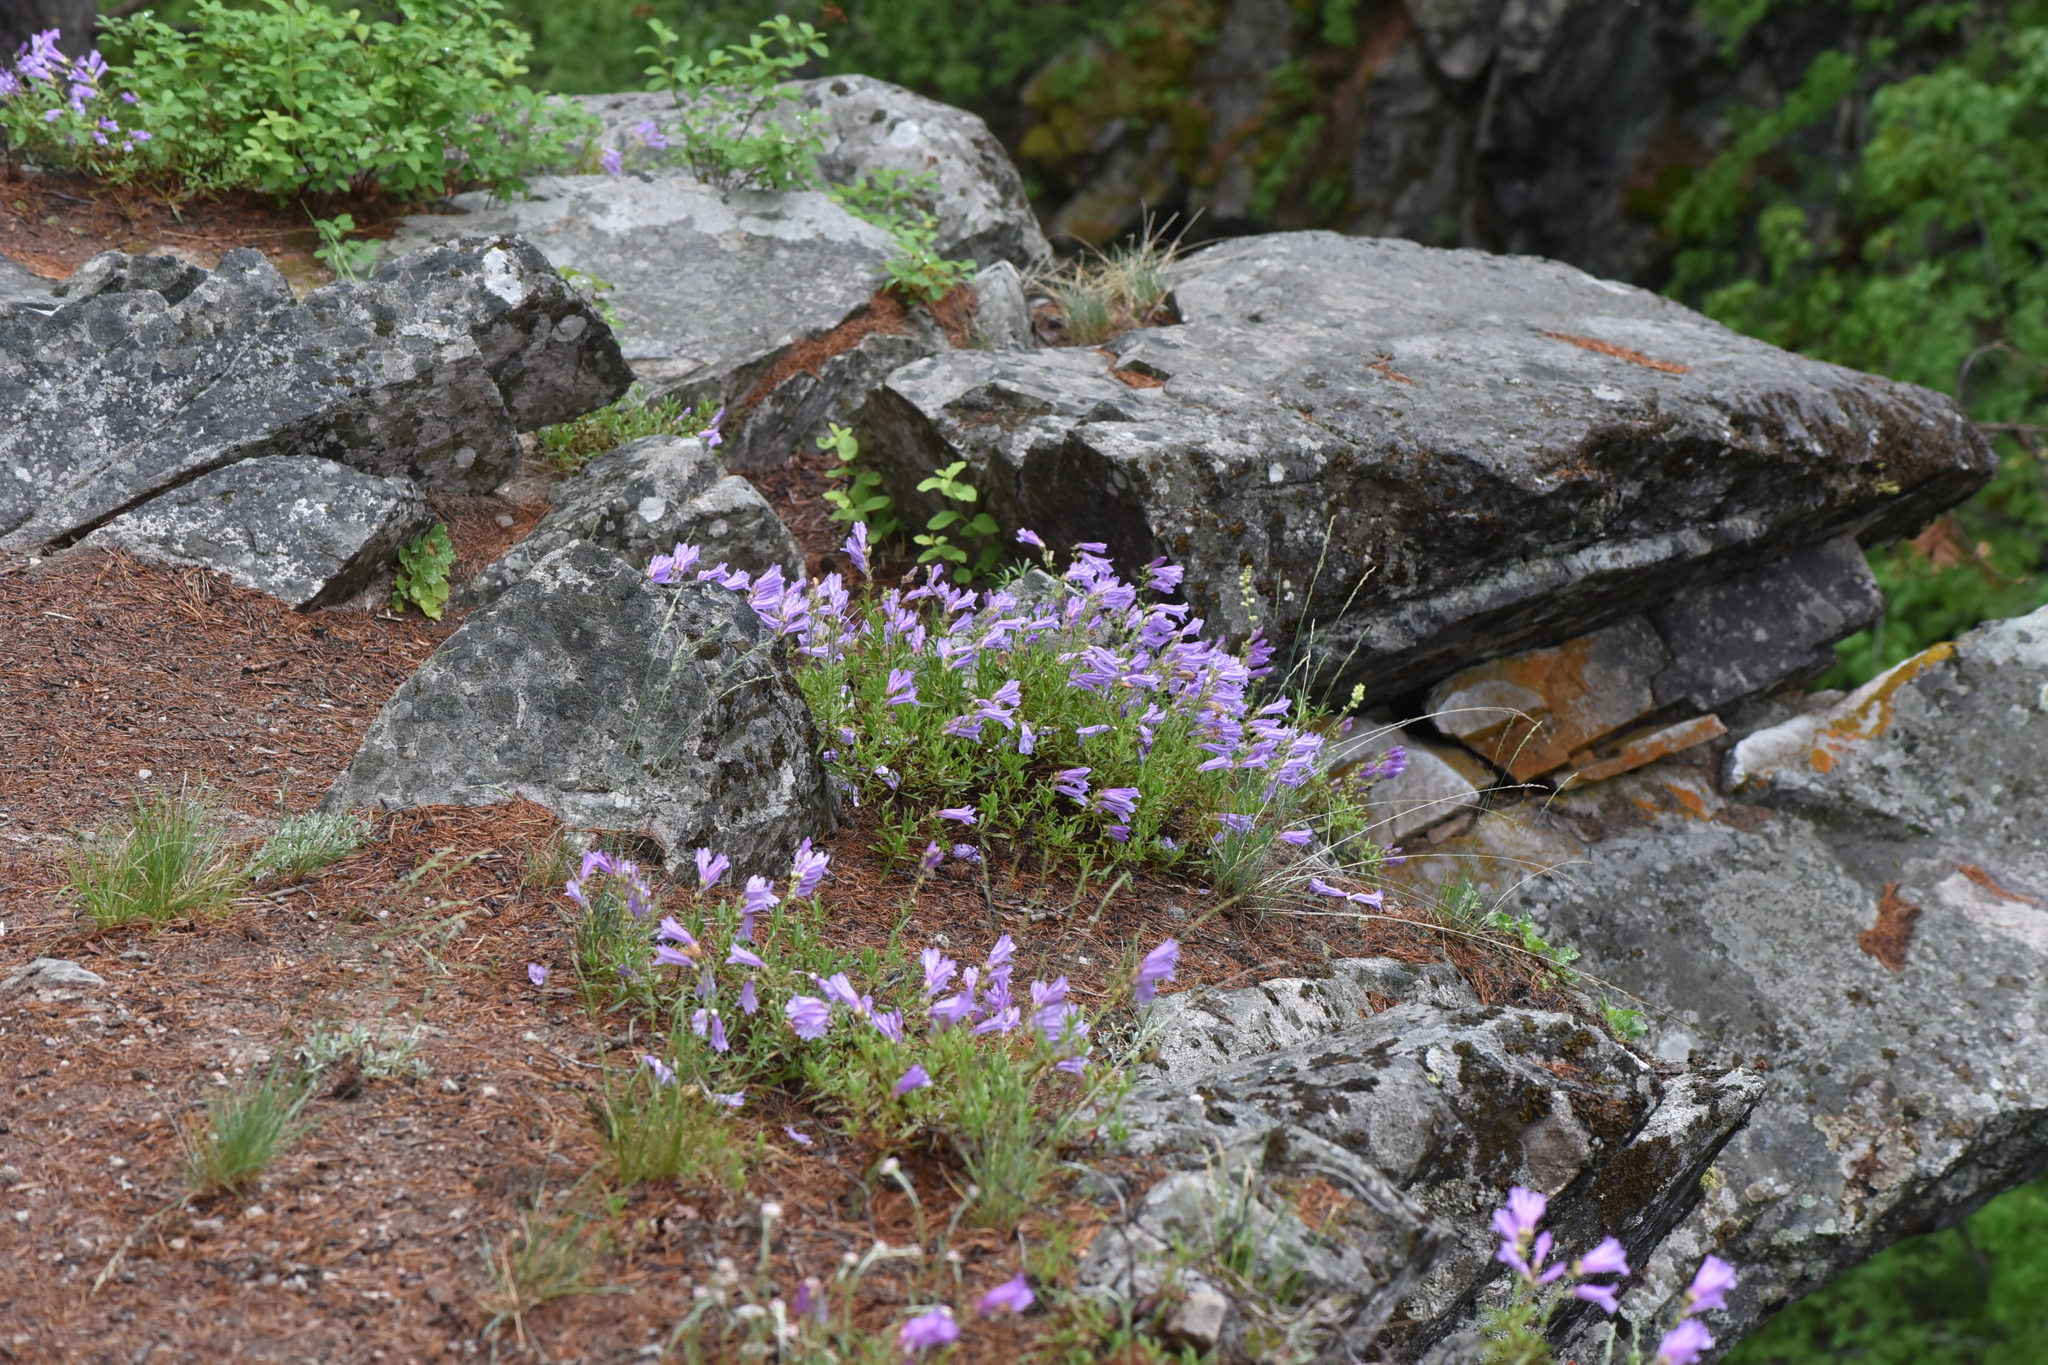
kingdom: Plantae
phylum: Tracheophyta
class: Magnoliopsida
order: Lamiales
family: Plantaginaceae
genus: Penstemon
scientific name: Penstemon fruticosus
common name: Bush penstemon
